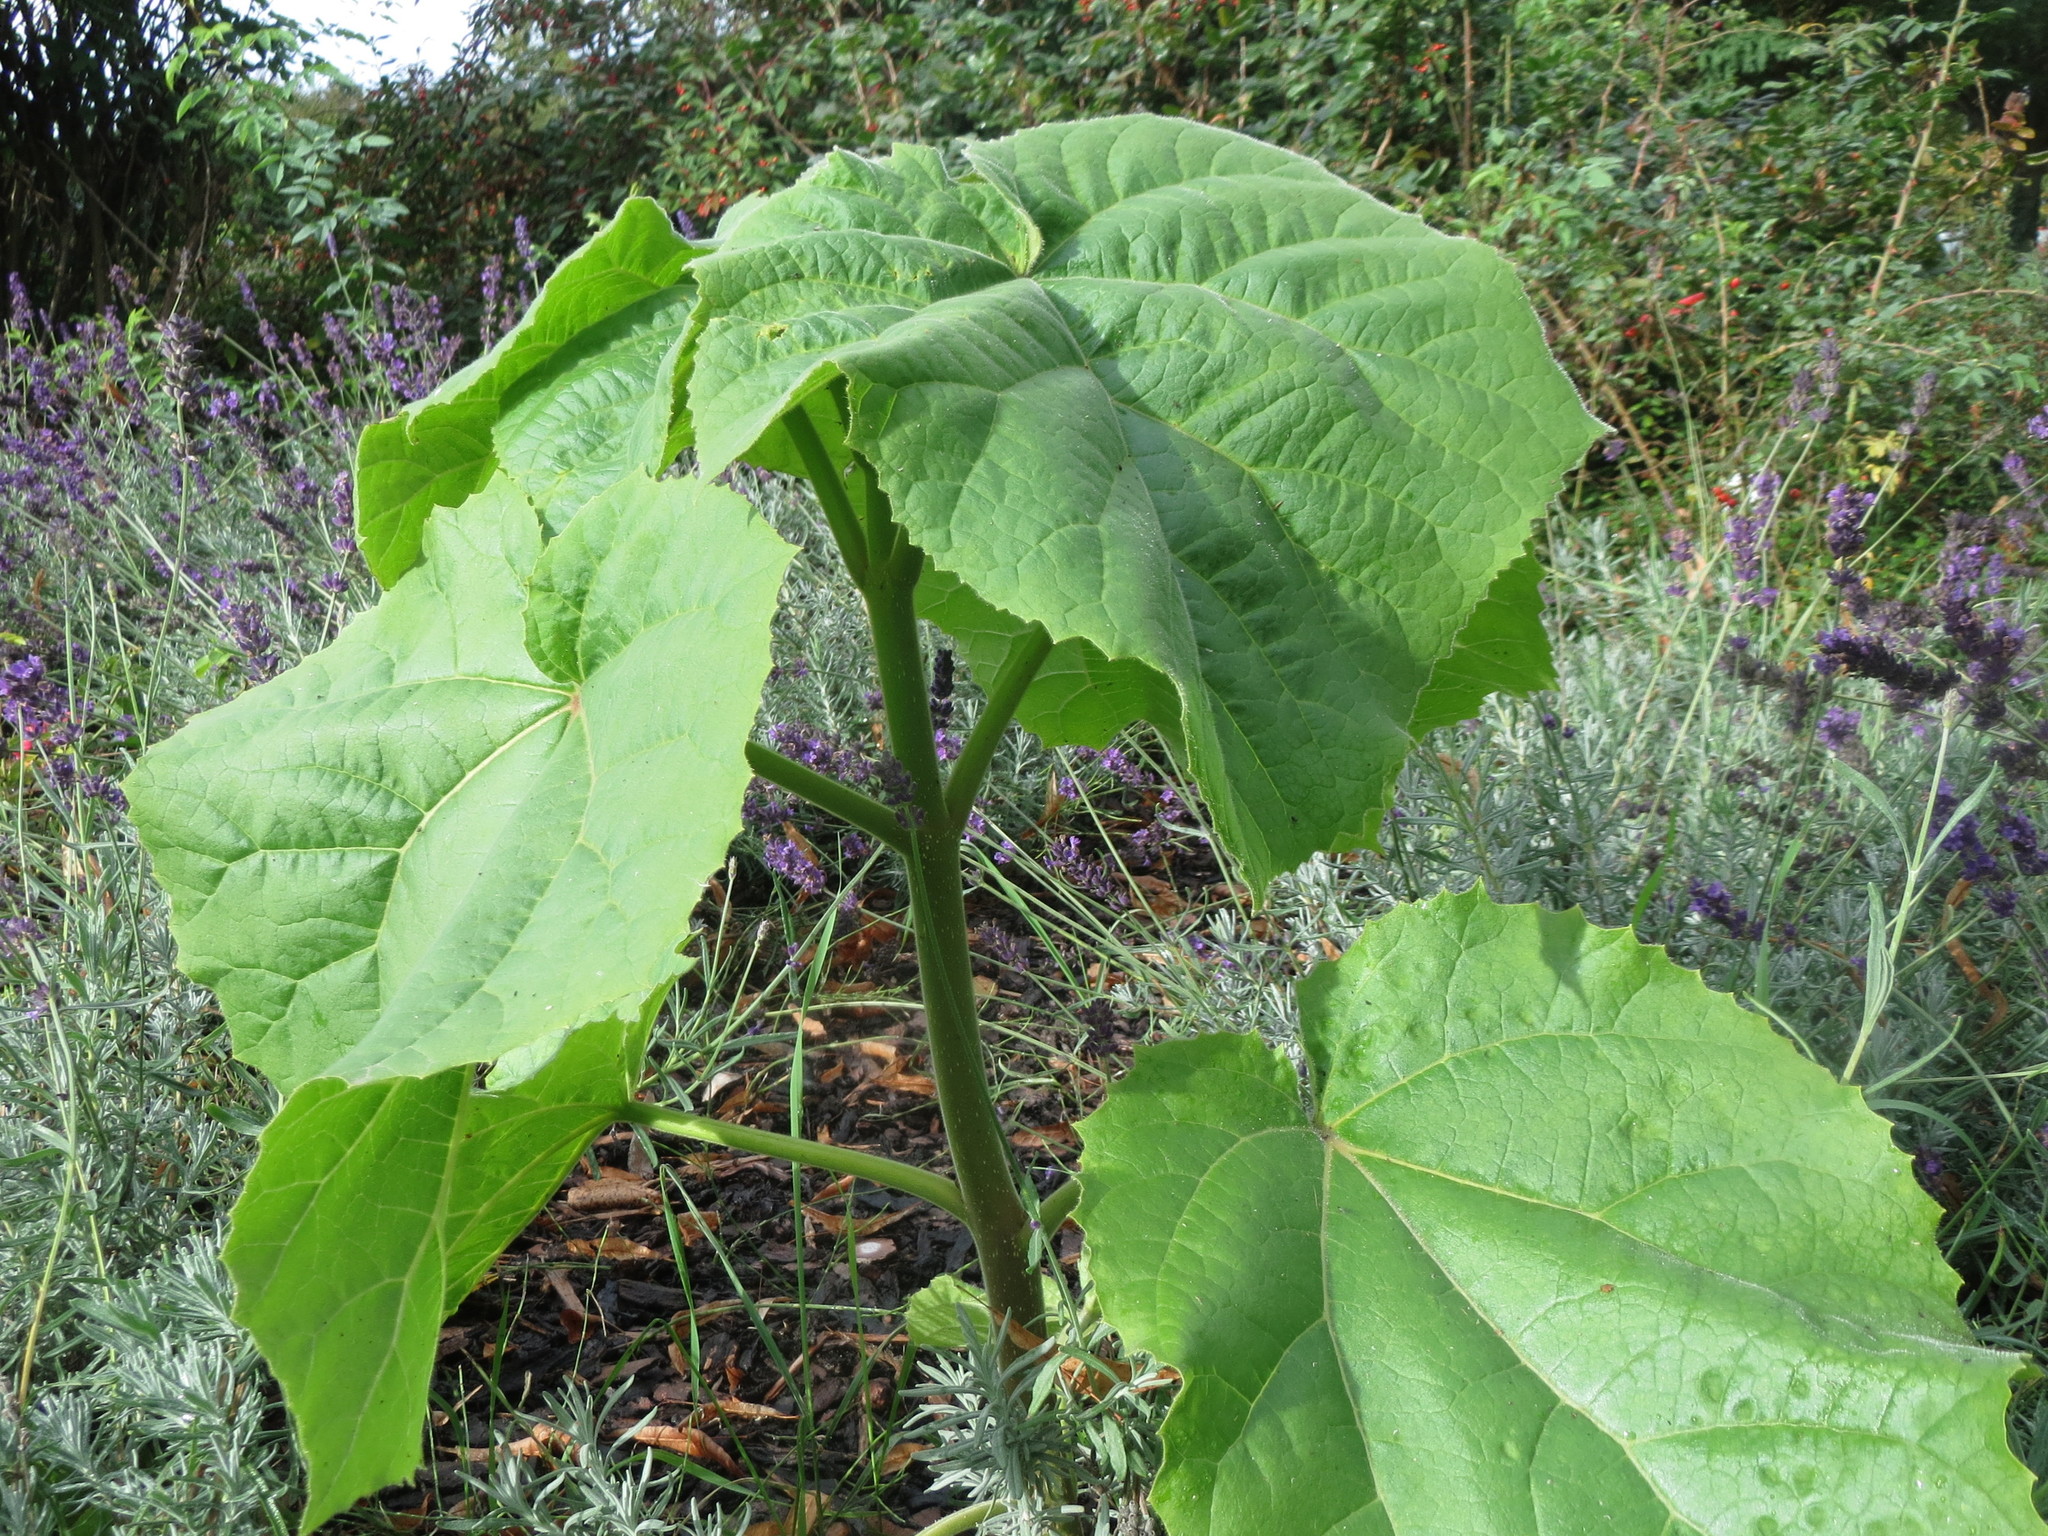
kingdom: Plantae
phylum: Tracheophyta
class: Magnoliopsida
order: Lamiales
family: Paulowniaceae
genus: Paulownia
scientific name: Paulownia tomentosa
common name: Foxglove-tree
